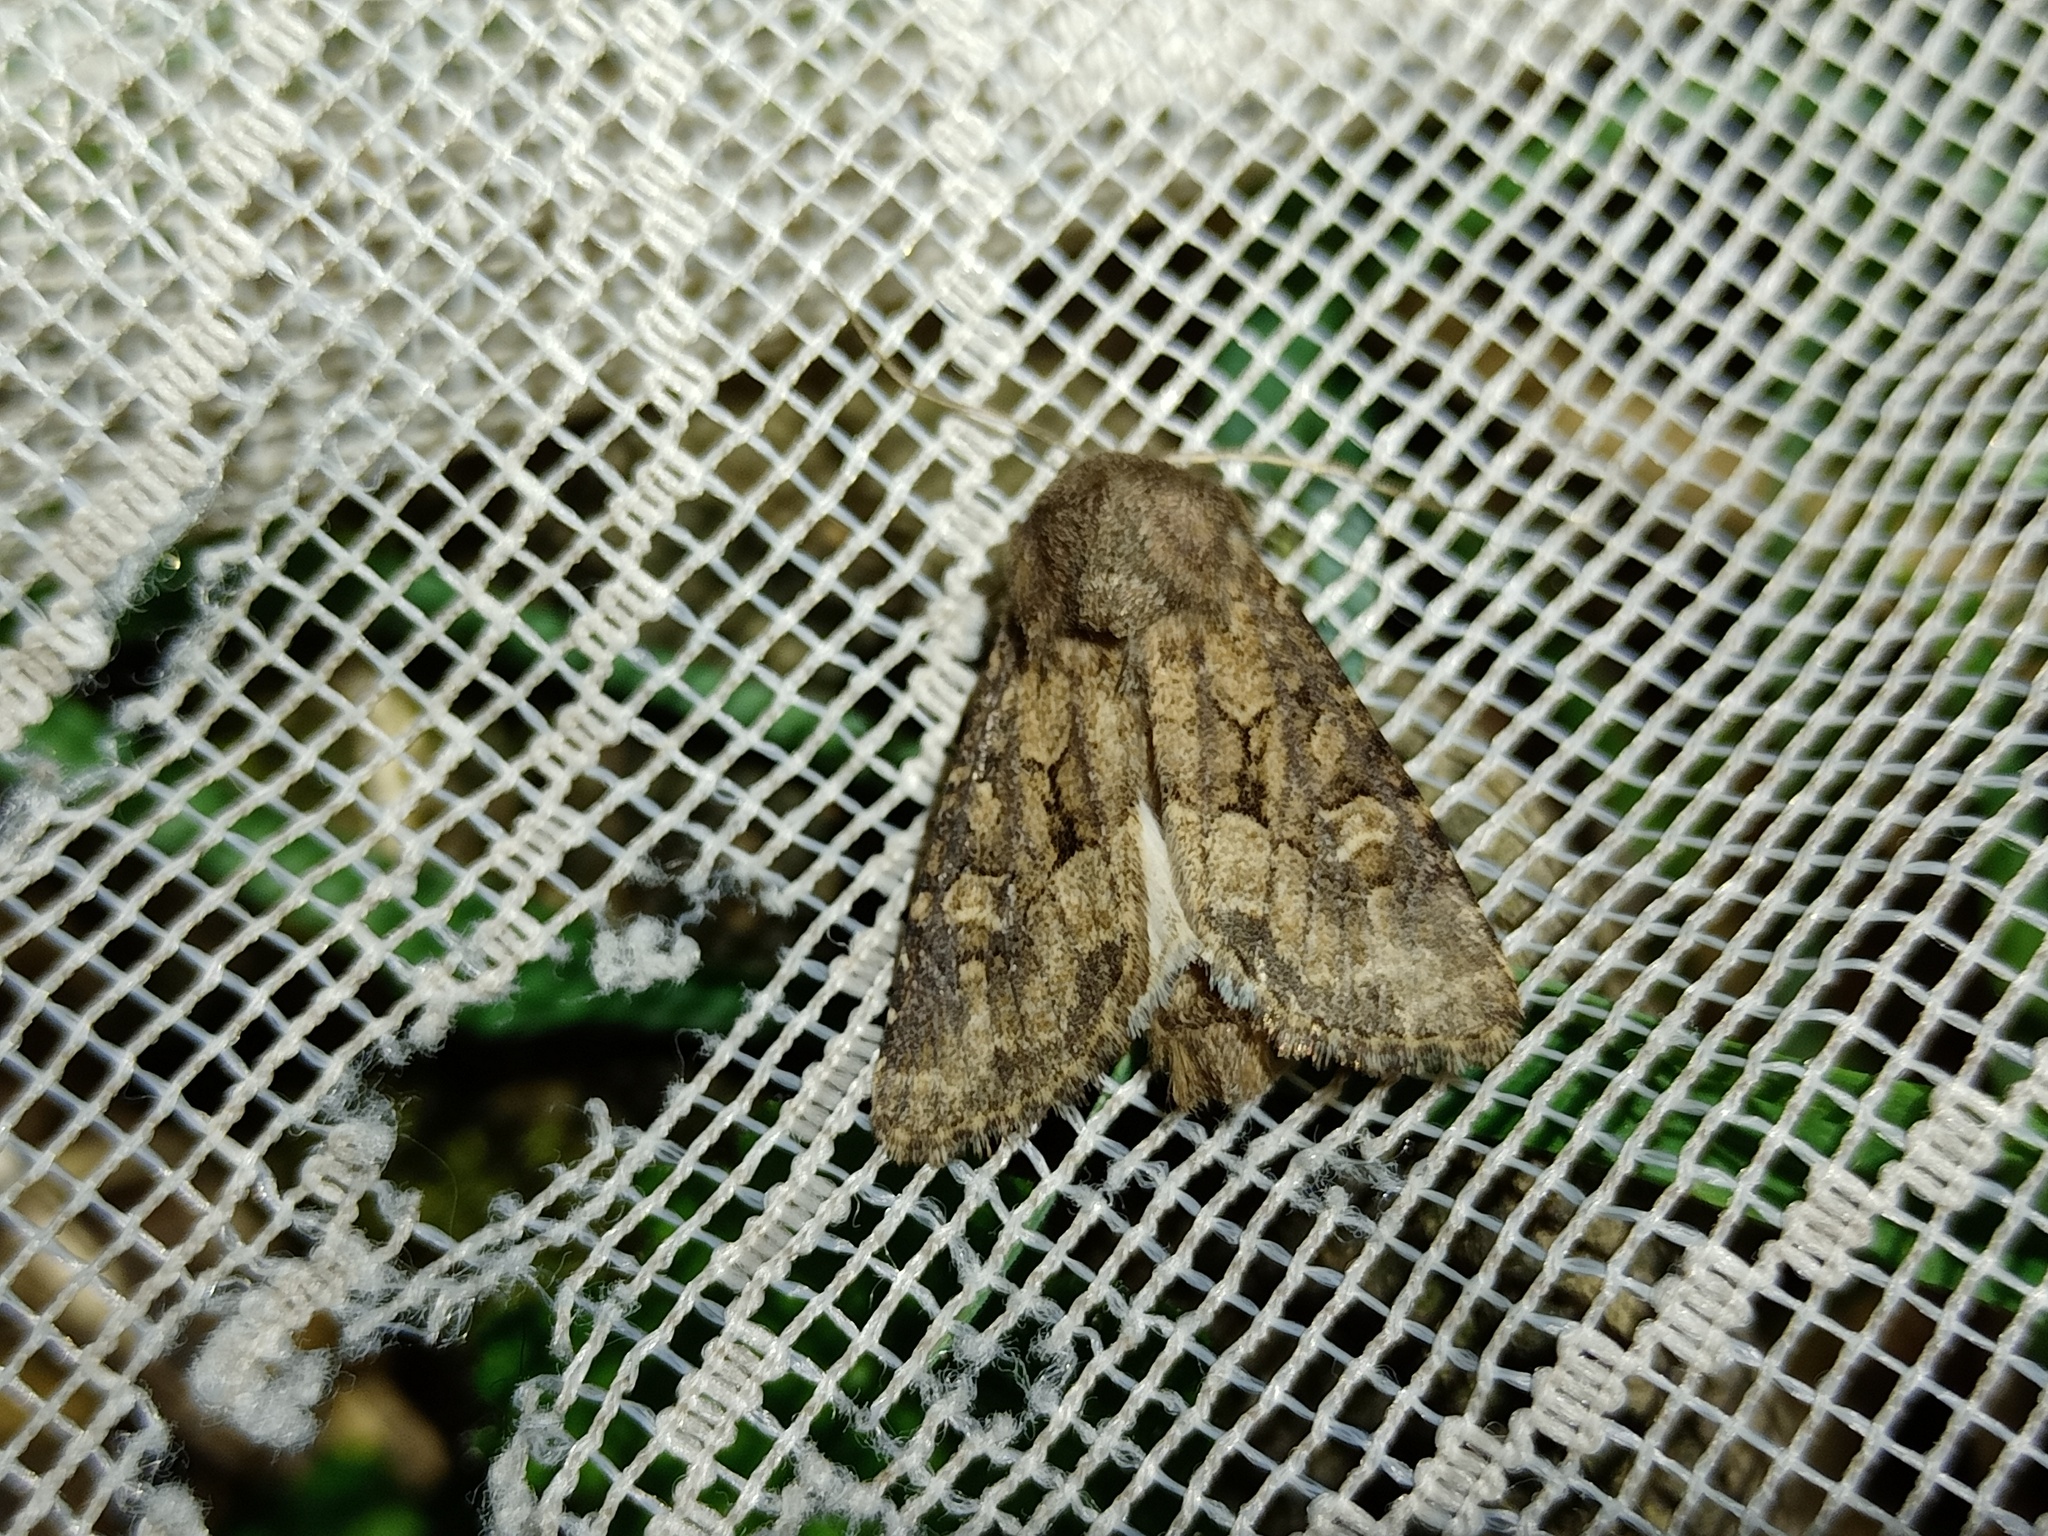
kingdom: Animalia
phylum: Arthropoda
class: Insecta
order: Lepidoptera
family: Noctuidae
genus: Luperina
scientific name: Luperina testacea
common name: Flounced rustic
